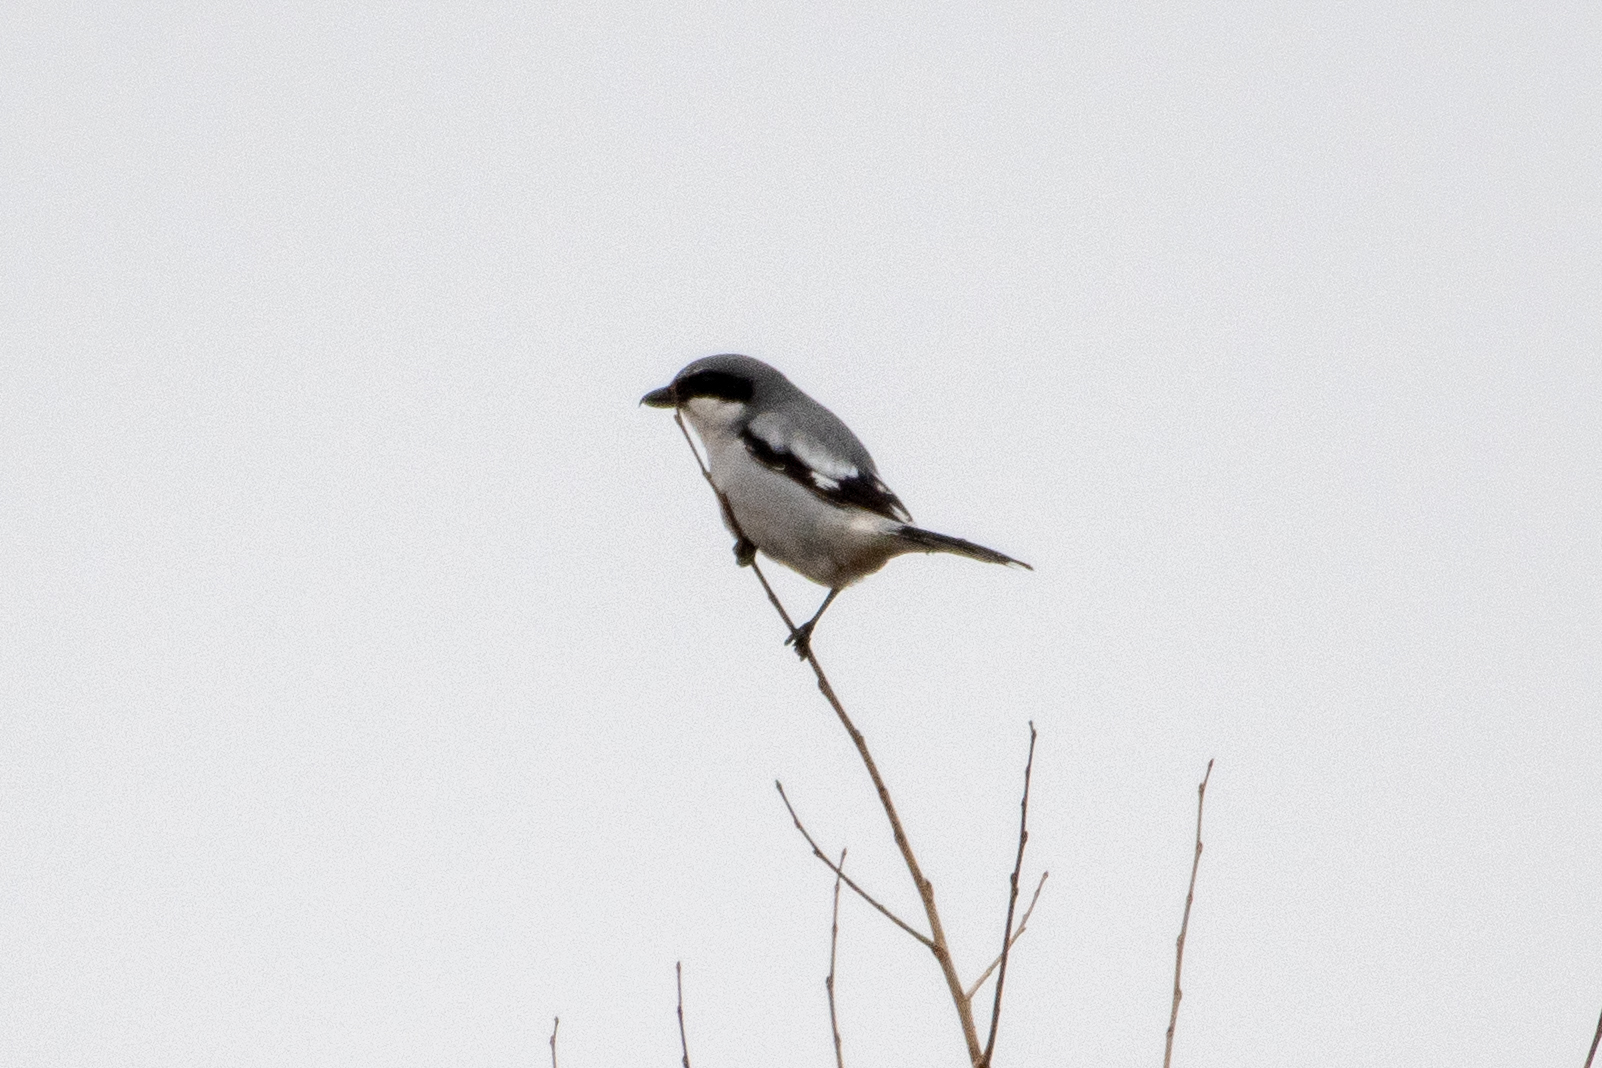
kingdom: Animalia
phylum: Chordata
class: Aves
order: Passeriformes
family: Laniidae
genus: Lanius
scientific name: Lanius ludovicianus
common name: Loggerhead shrike
